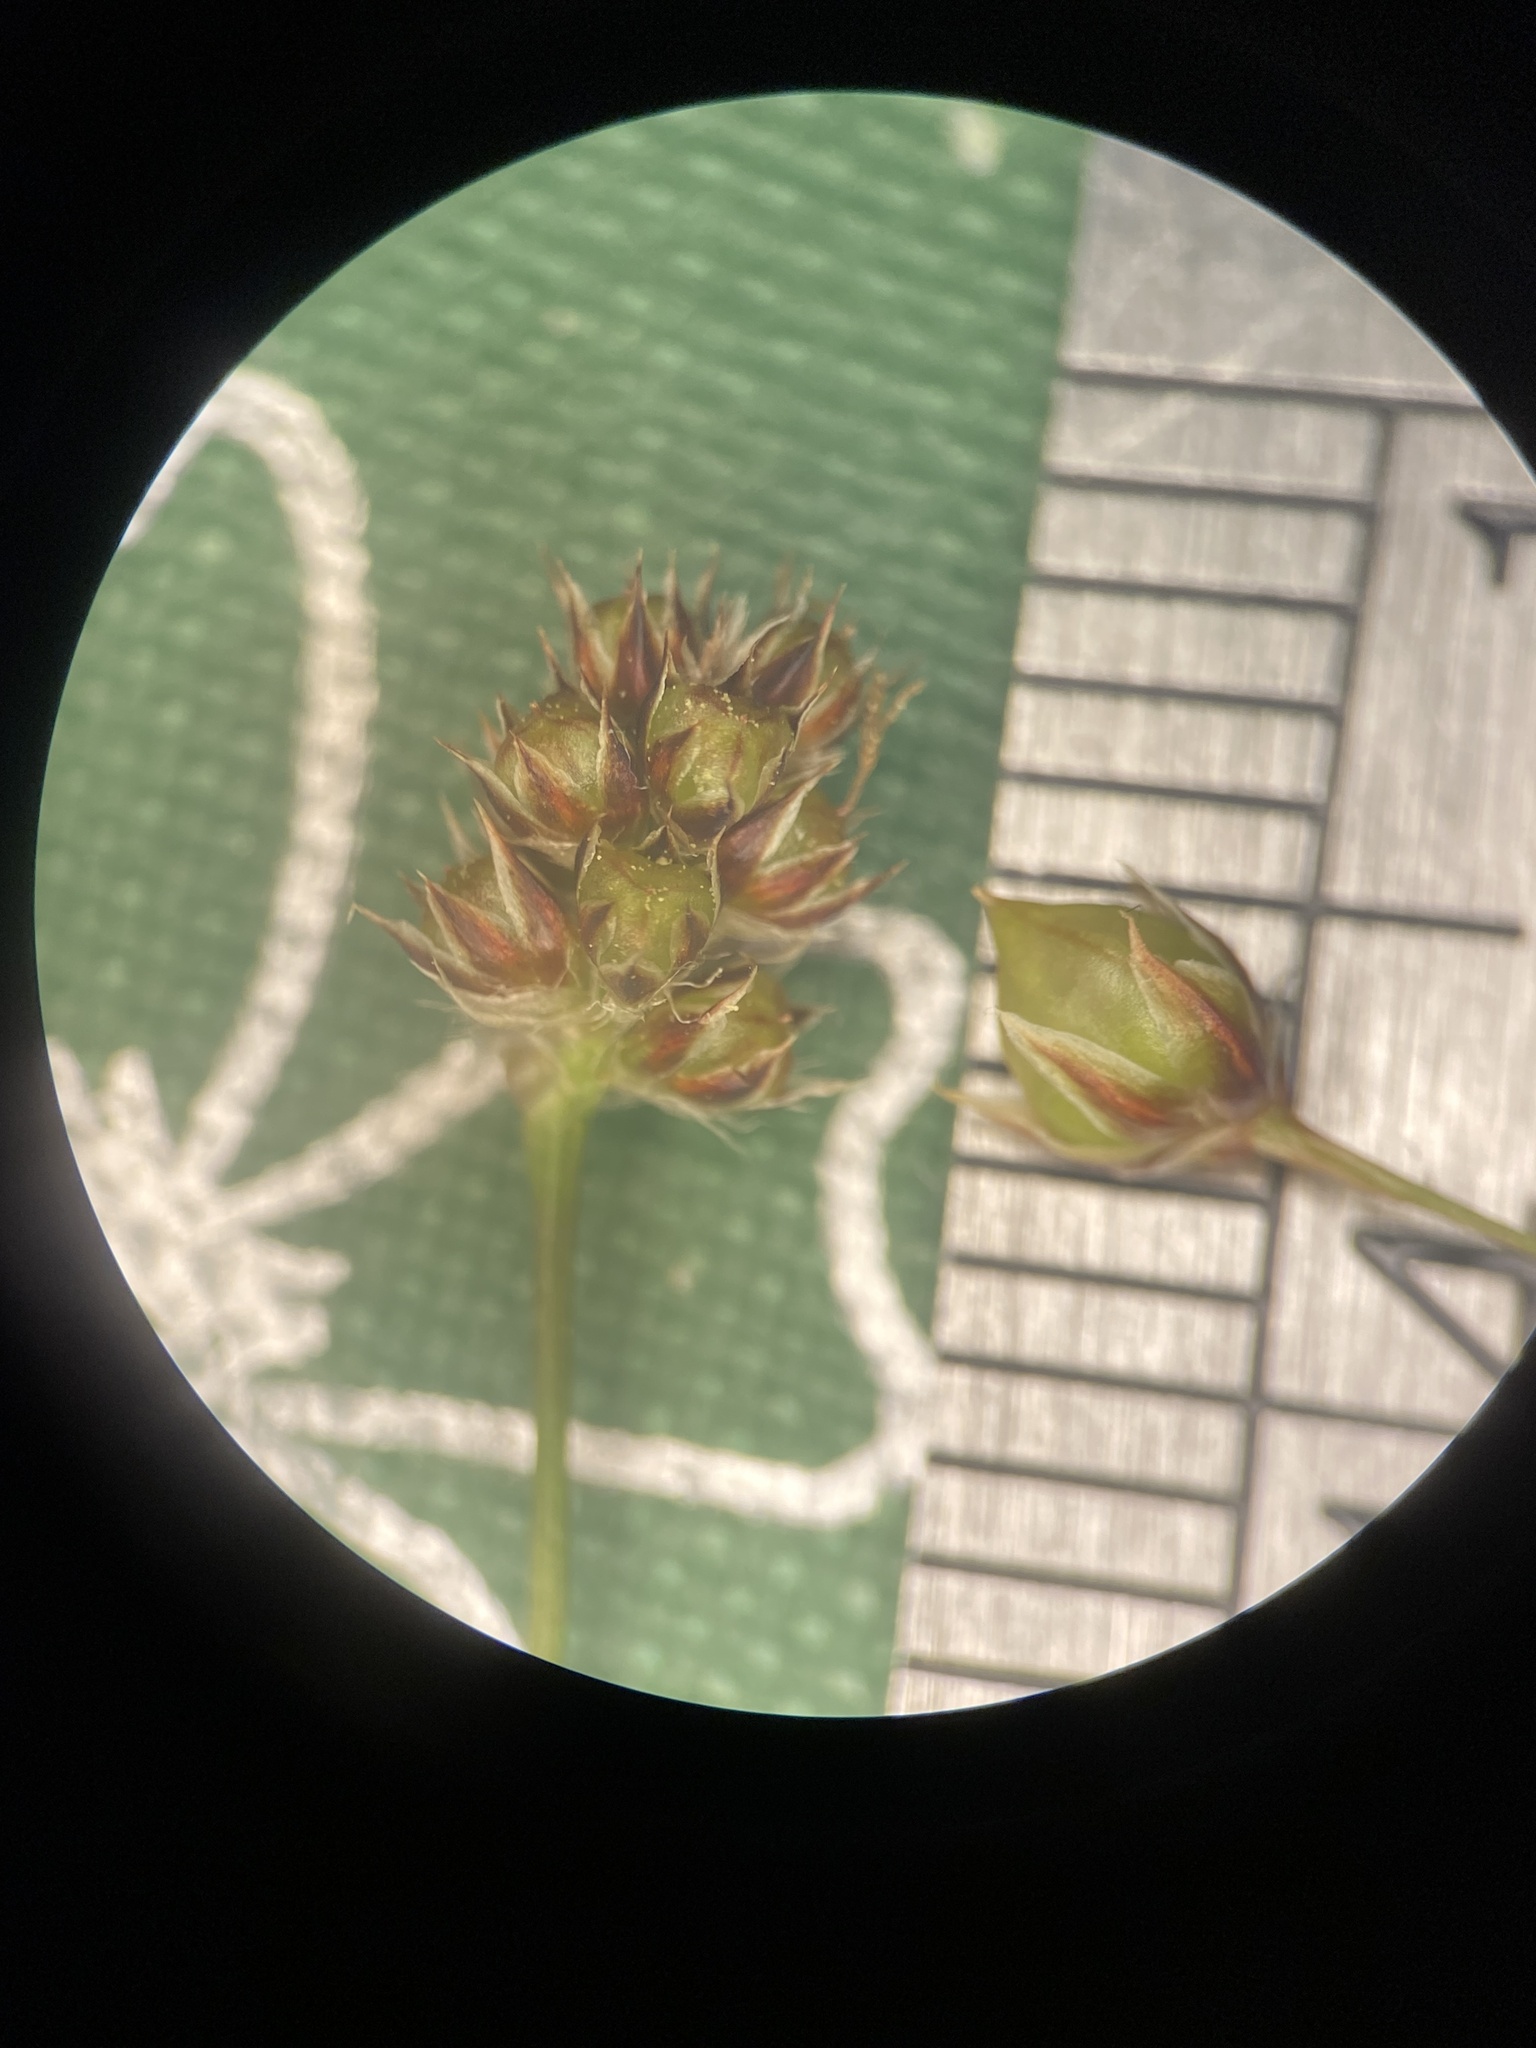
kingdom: Plantae
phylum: Tracheophyta
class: Liliopsida
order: Poales
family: Juncaceae
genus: Luzula
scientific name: Luzula acuminata
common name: Hairy woodrush
